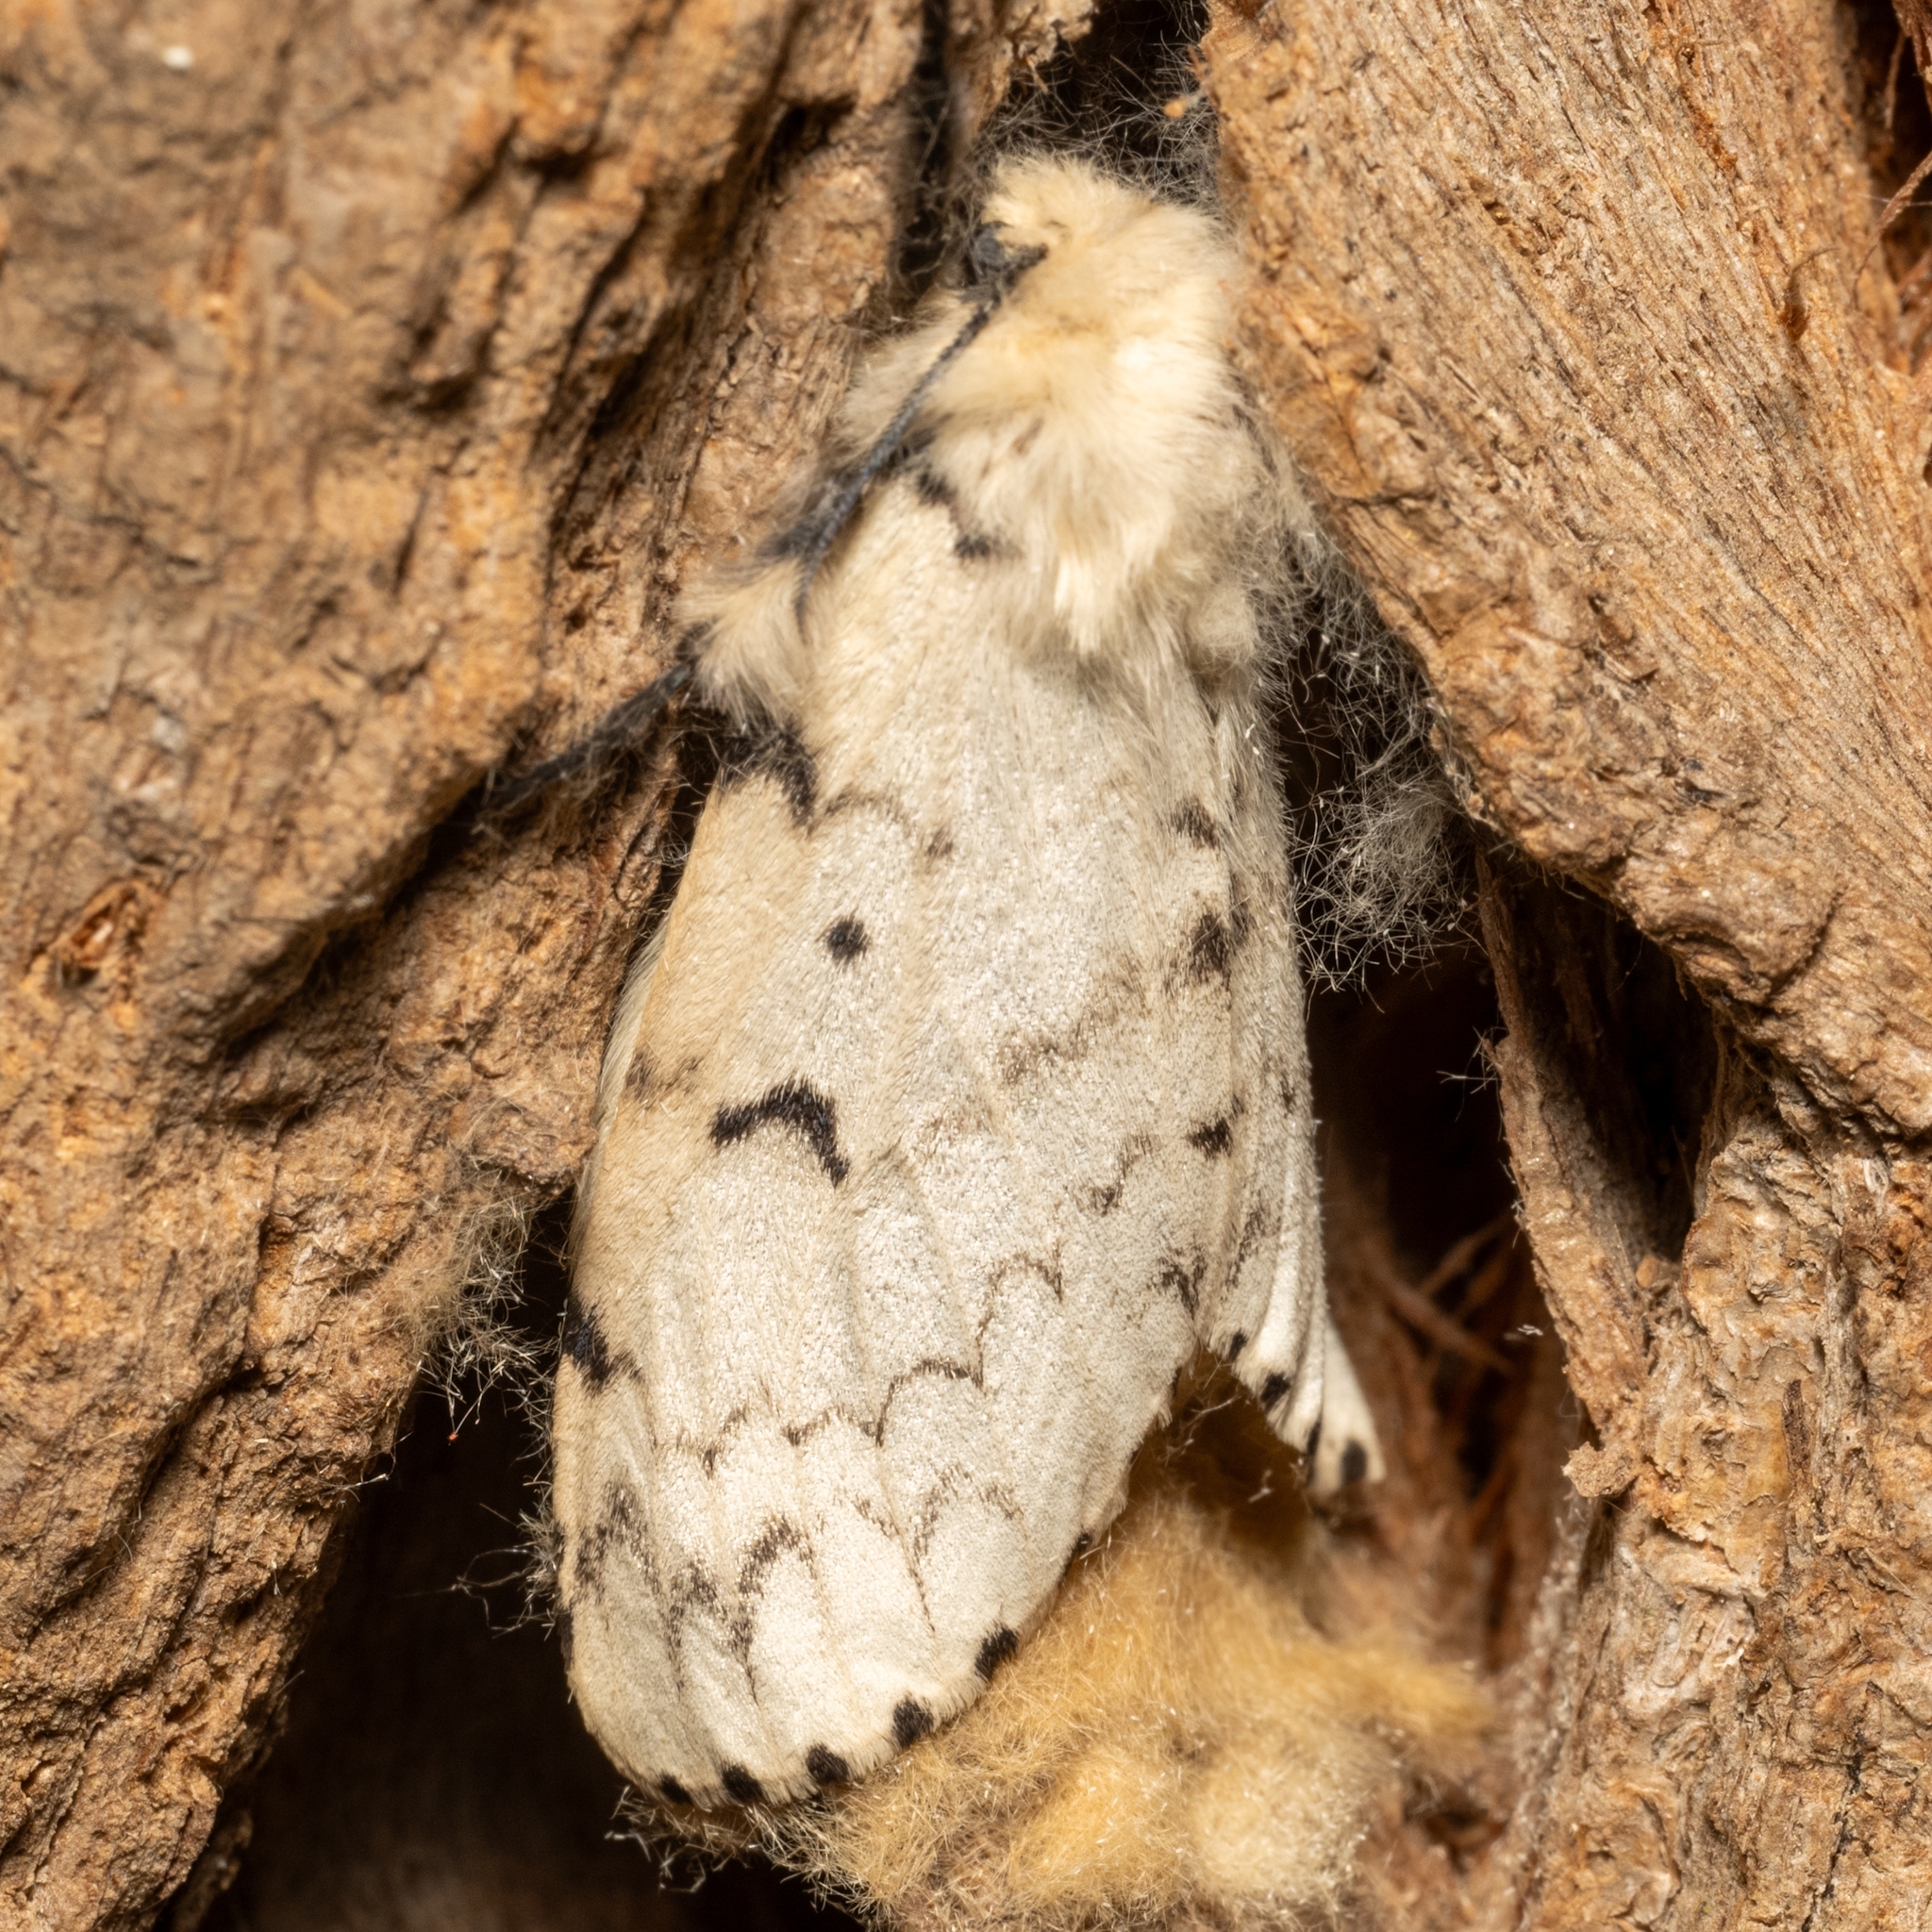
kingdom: Animalia
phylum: Arthropoda
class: Insecta
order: Lepidoptera
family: Erebidae
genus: Lymantria
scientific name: Lymantria dispar
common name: Gypsy moth
